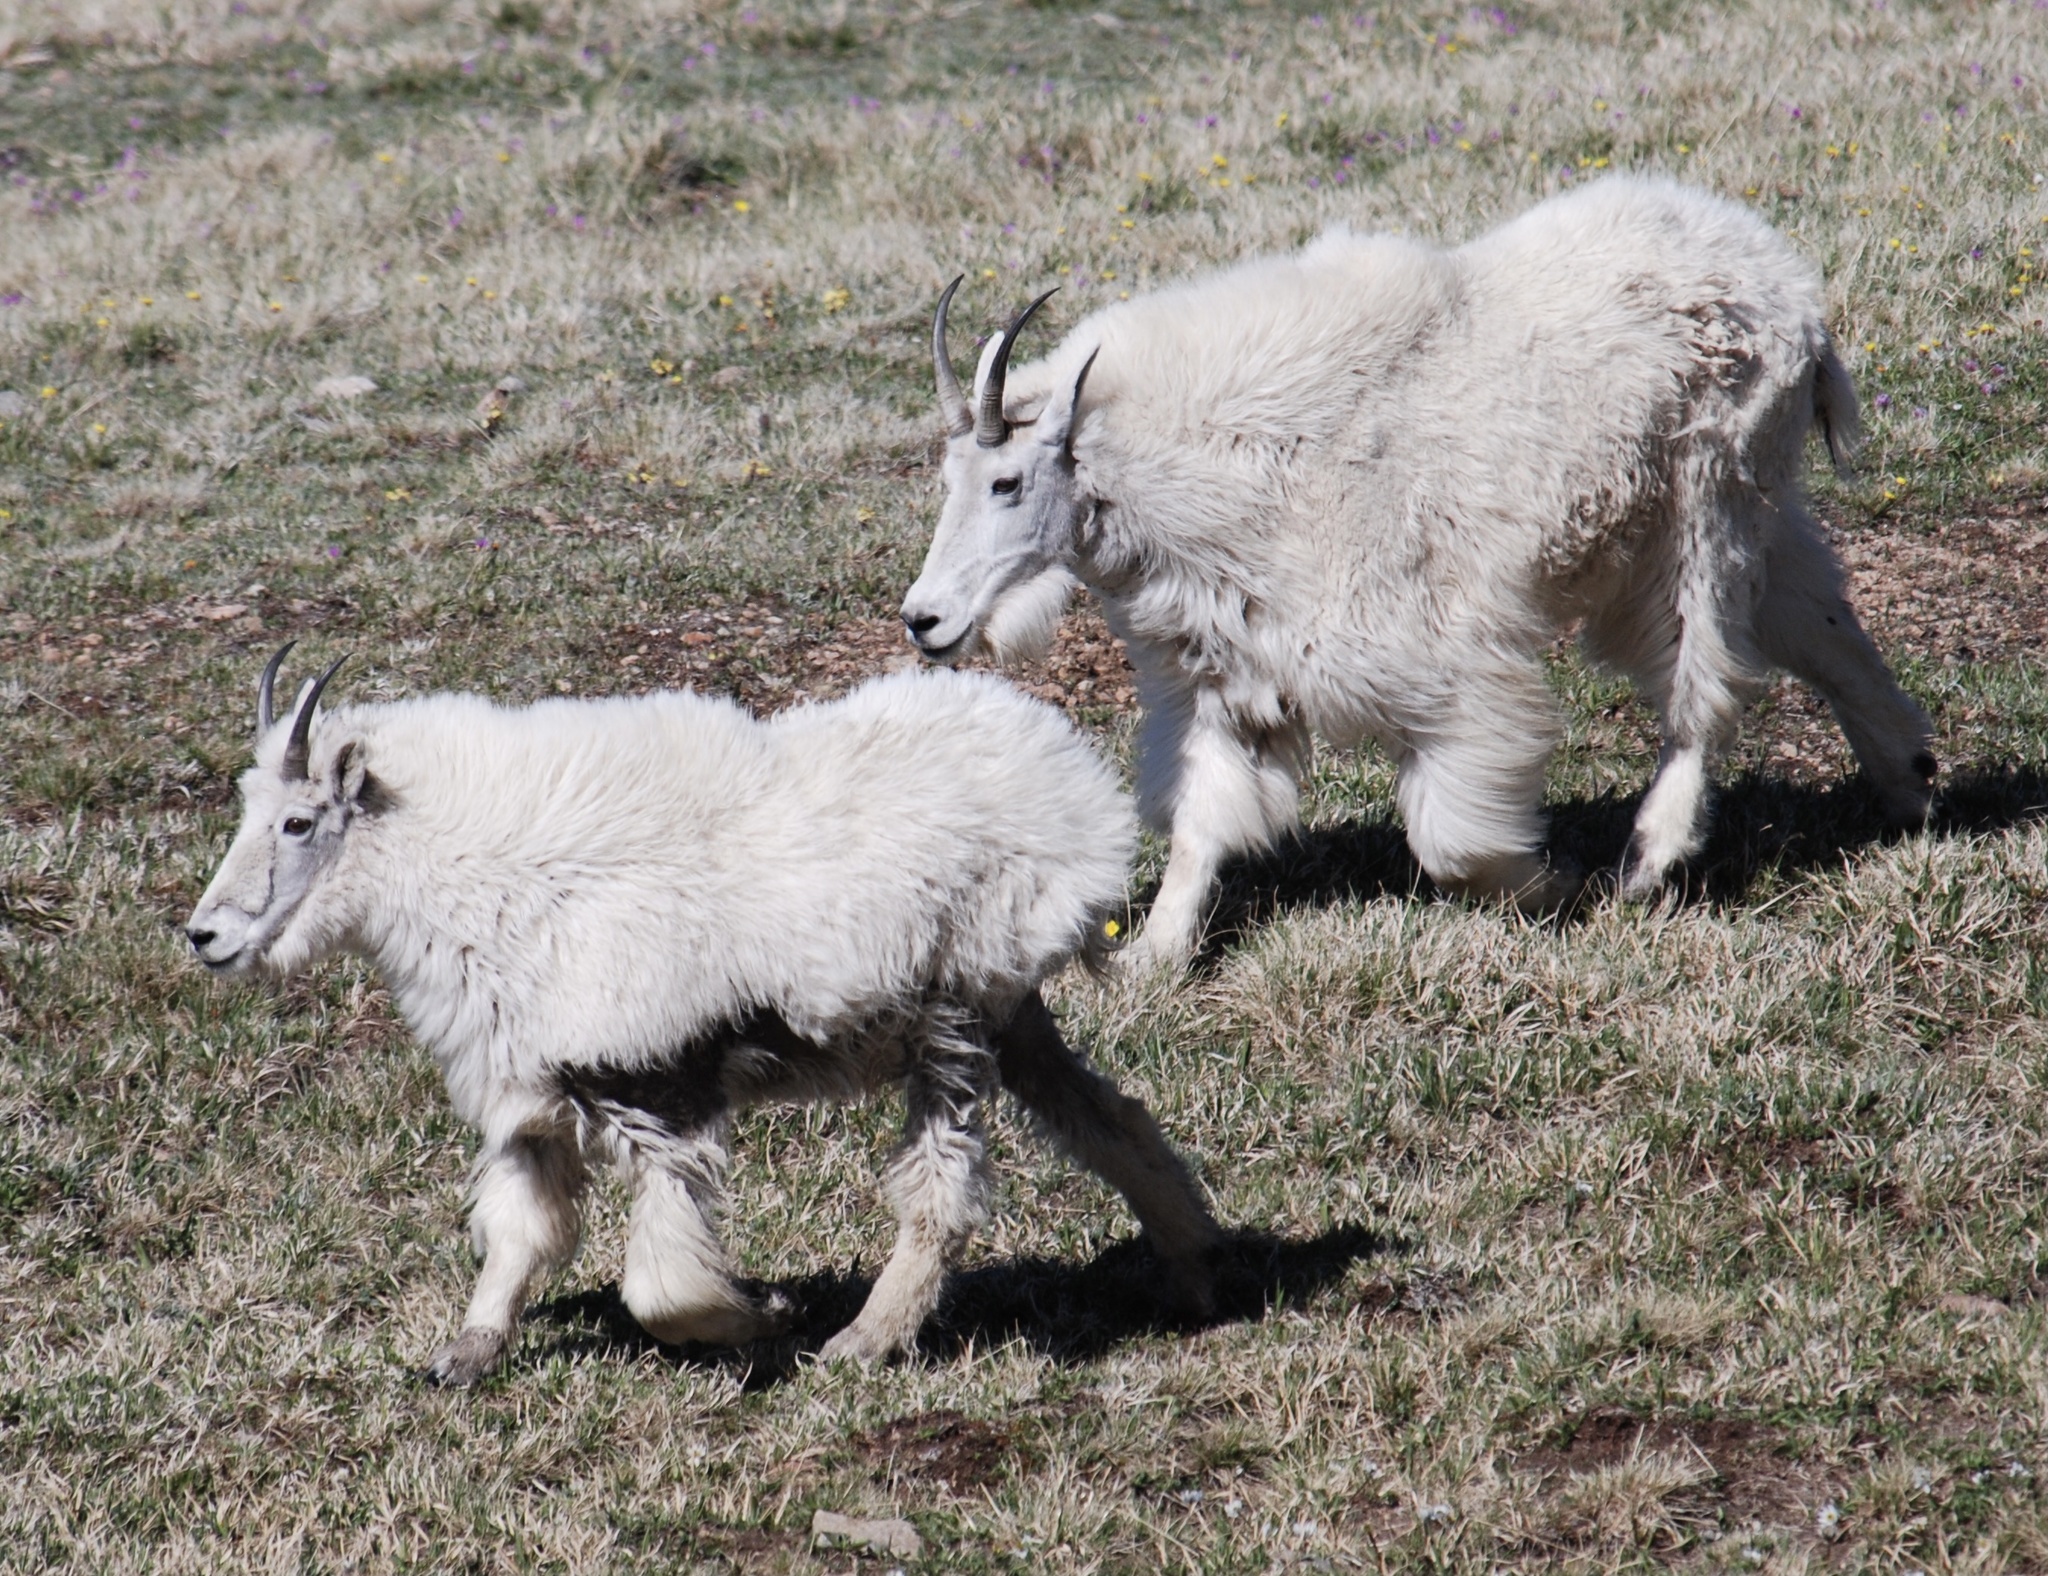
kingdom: Animalia
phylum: Chordata
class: Mammalia
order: Artiodactyla
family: Bovidae
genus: Oreamnos
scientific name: Oreamnos americanus
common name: Mountain goat
